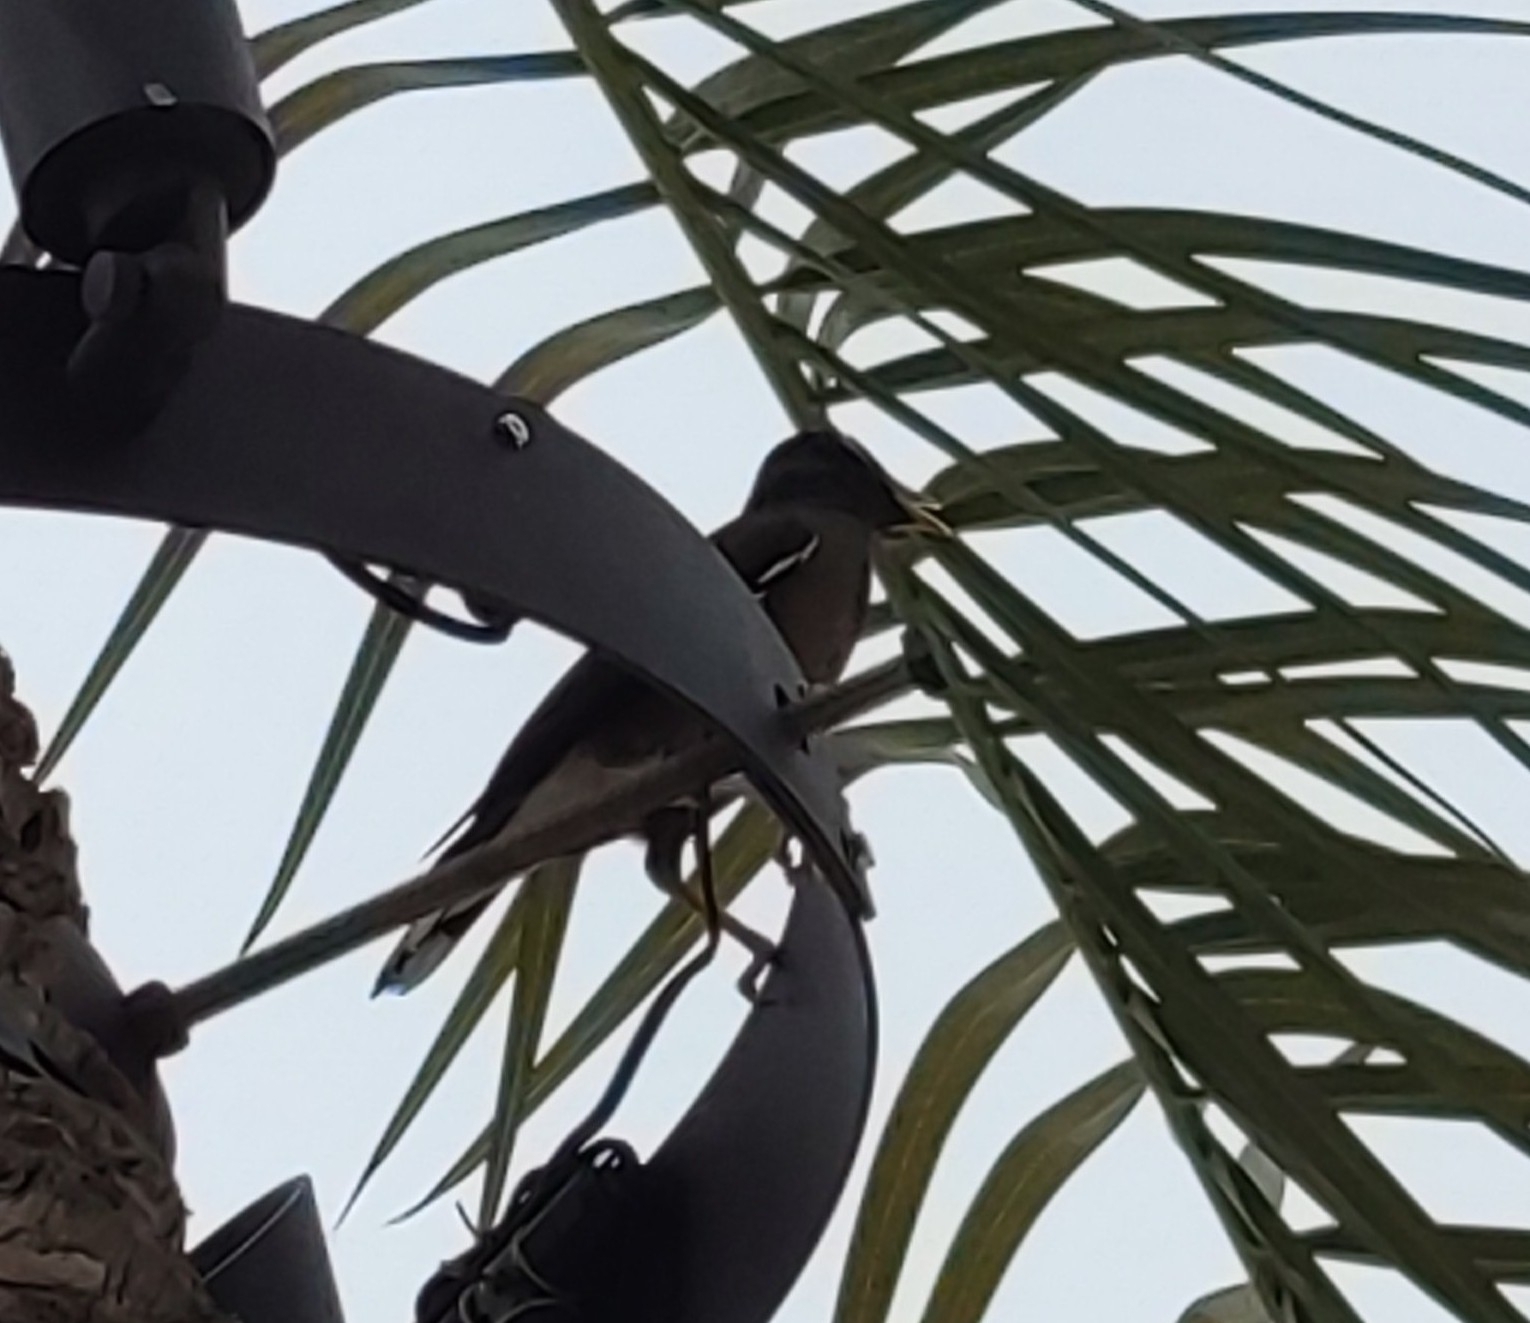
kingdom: Animalia
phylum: Chordata
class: Aves
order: Passeriformes
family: Sturnidae
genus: Acridotheres
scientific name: Acridotheres tristis
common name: Common myna
